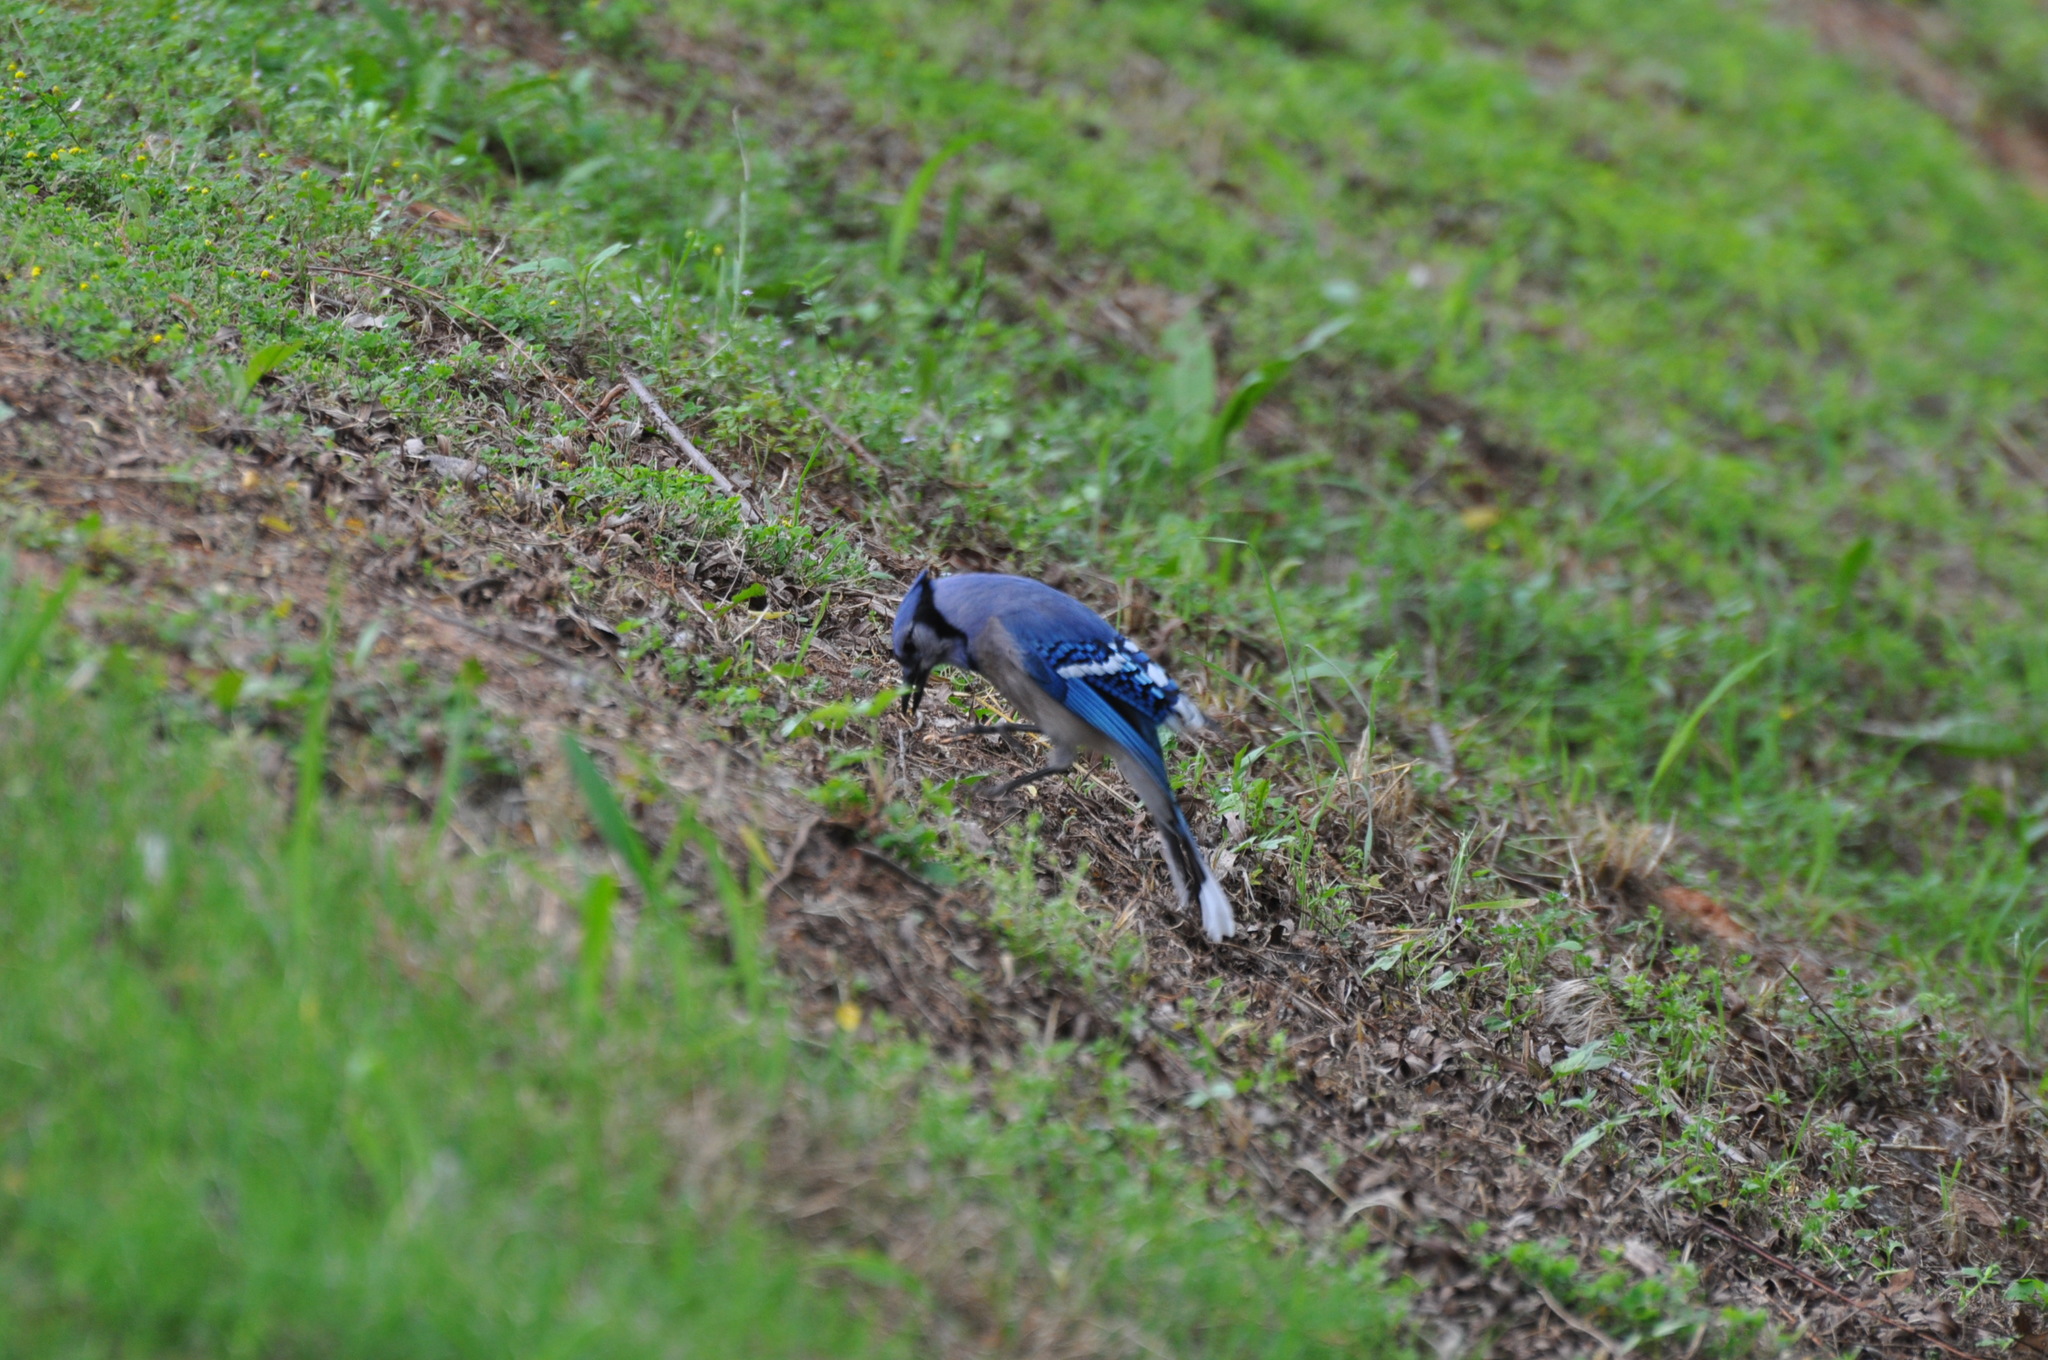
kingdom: Animalia
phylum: Chordata
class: Aves
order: Passeriformes
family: Corvidae
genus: Cyanocitta
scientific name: Cyanocitta cristata
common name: Blue jay
